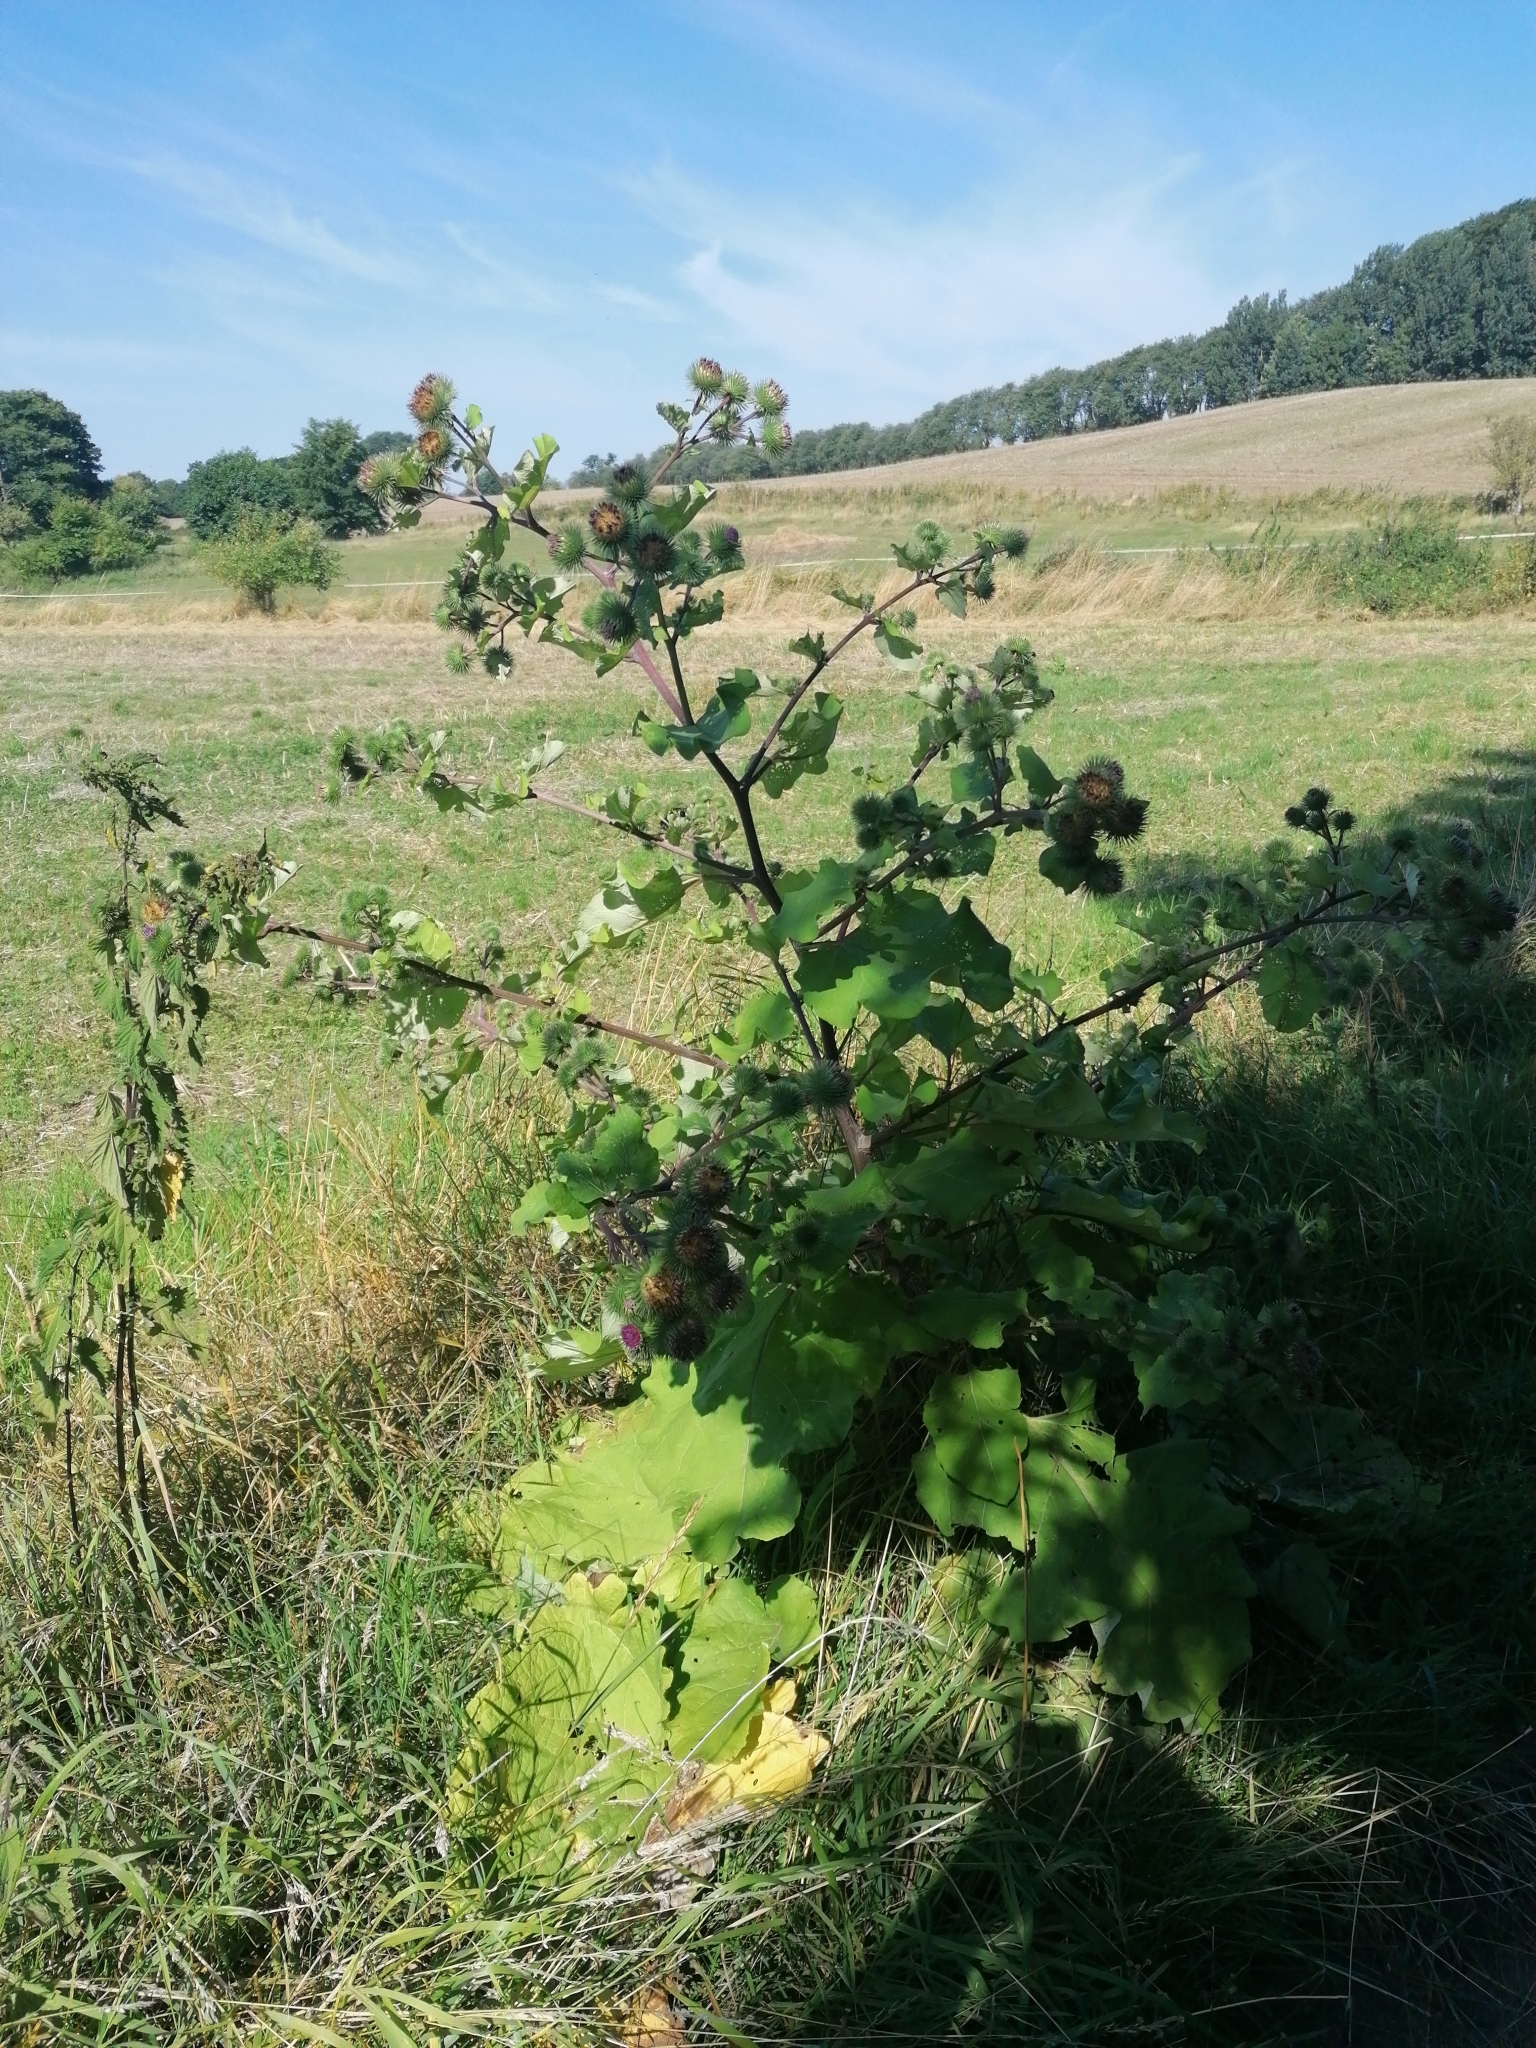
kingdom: Plantae
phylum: Tracheophyta
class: Magnoliopsida
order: Asterales
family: Asteraceae
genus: Arctium
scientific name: Arctium lappa
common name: Greater burdock
